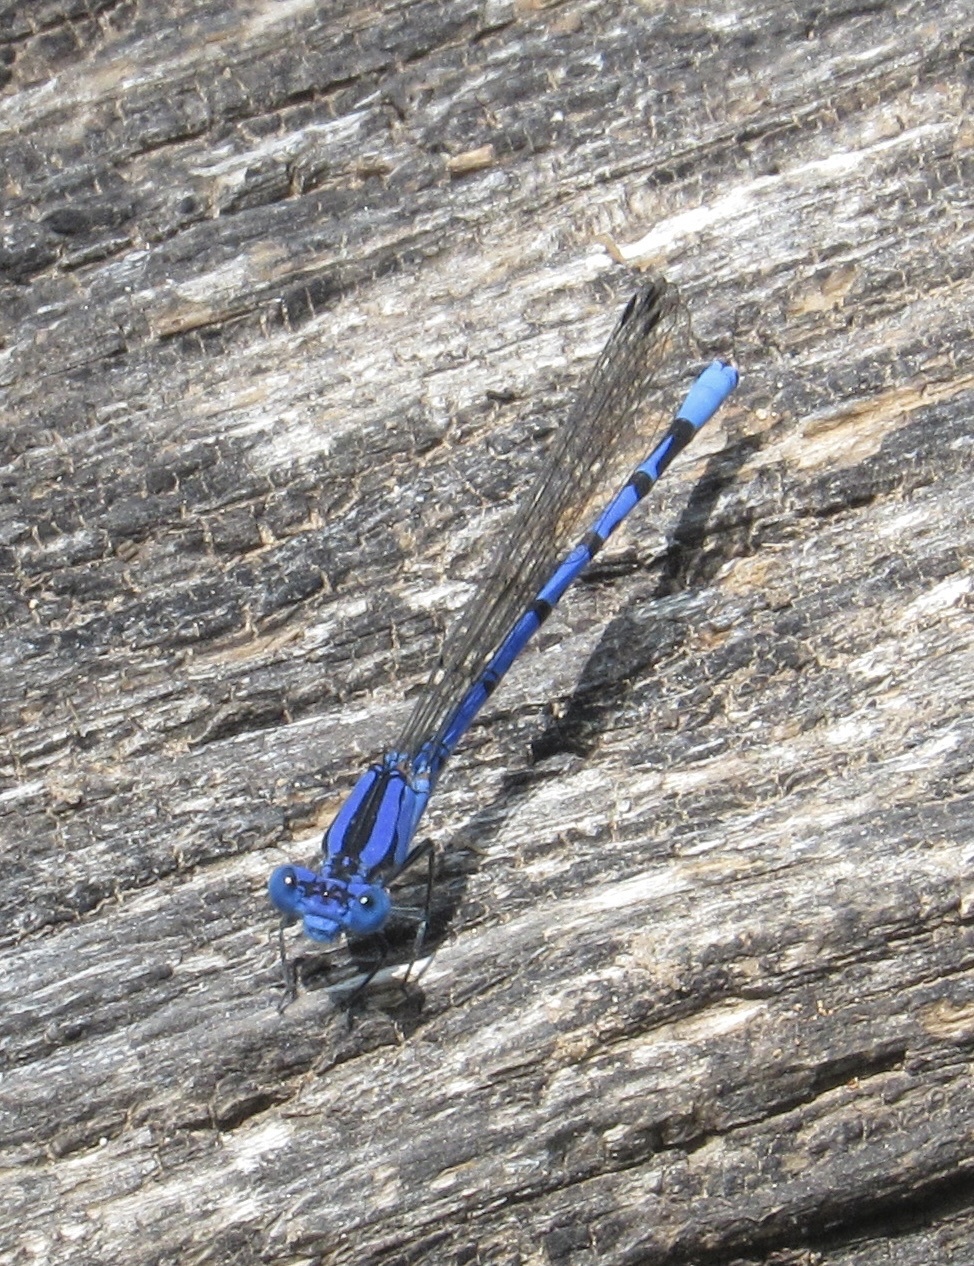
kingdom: Animalia
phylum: Arthropoda
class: Insecta
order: Odonata
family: Coenagrionidae
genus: Argia
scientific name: Argia funebris
